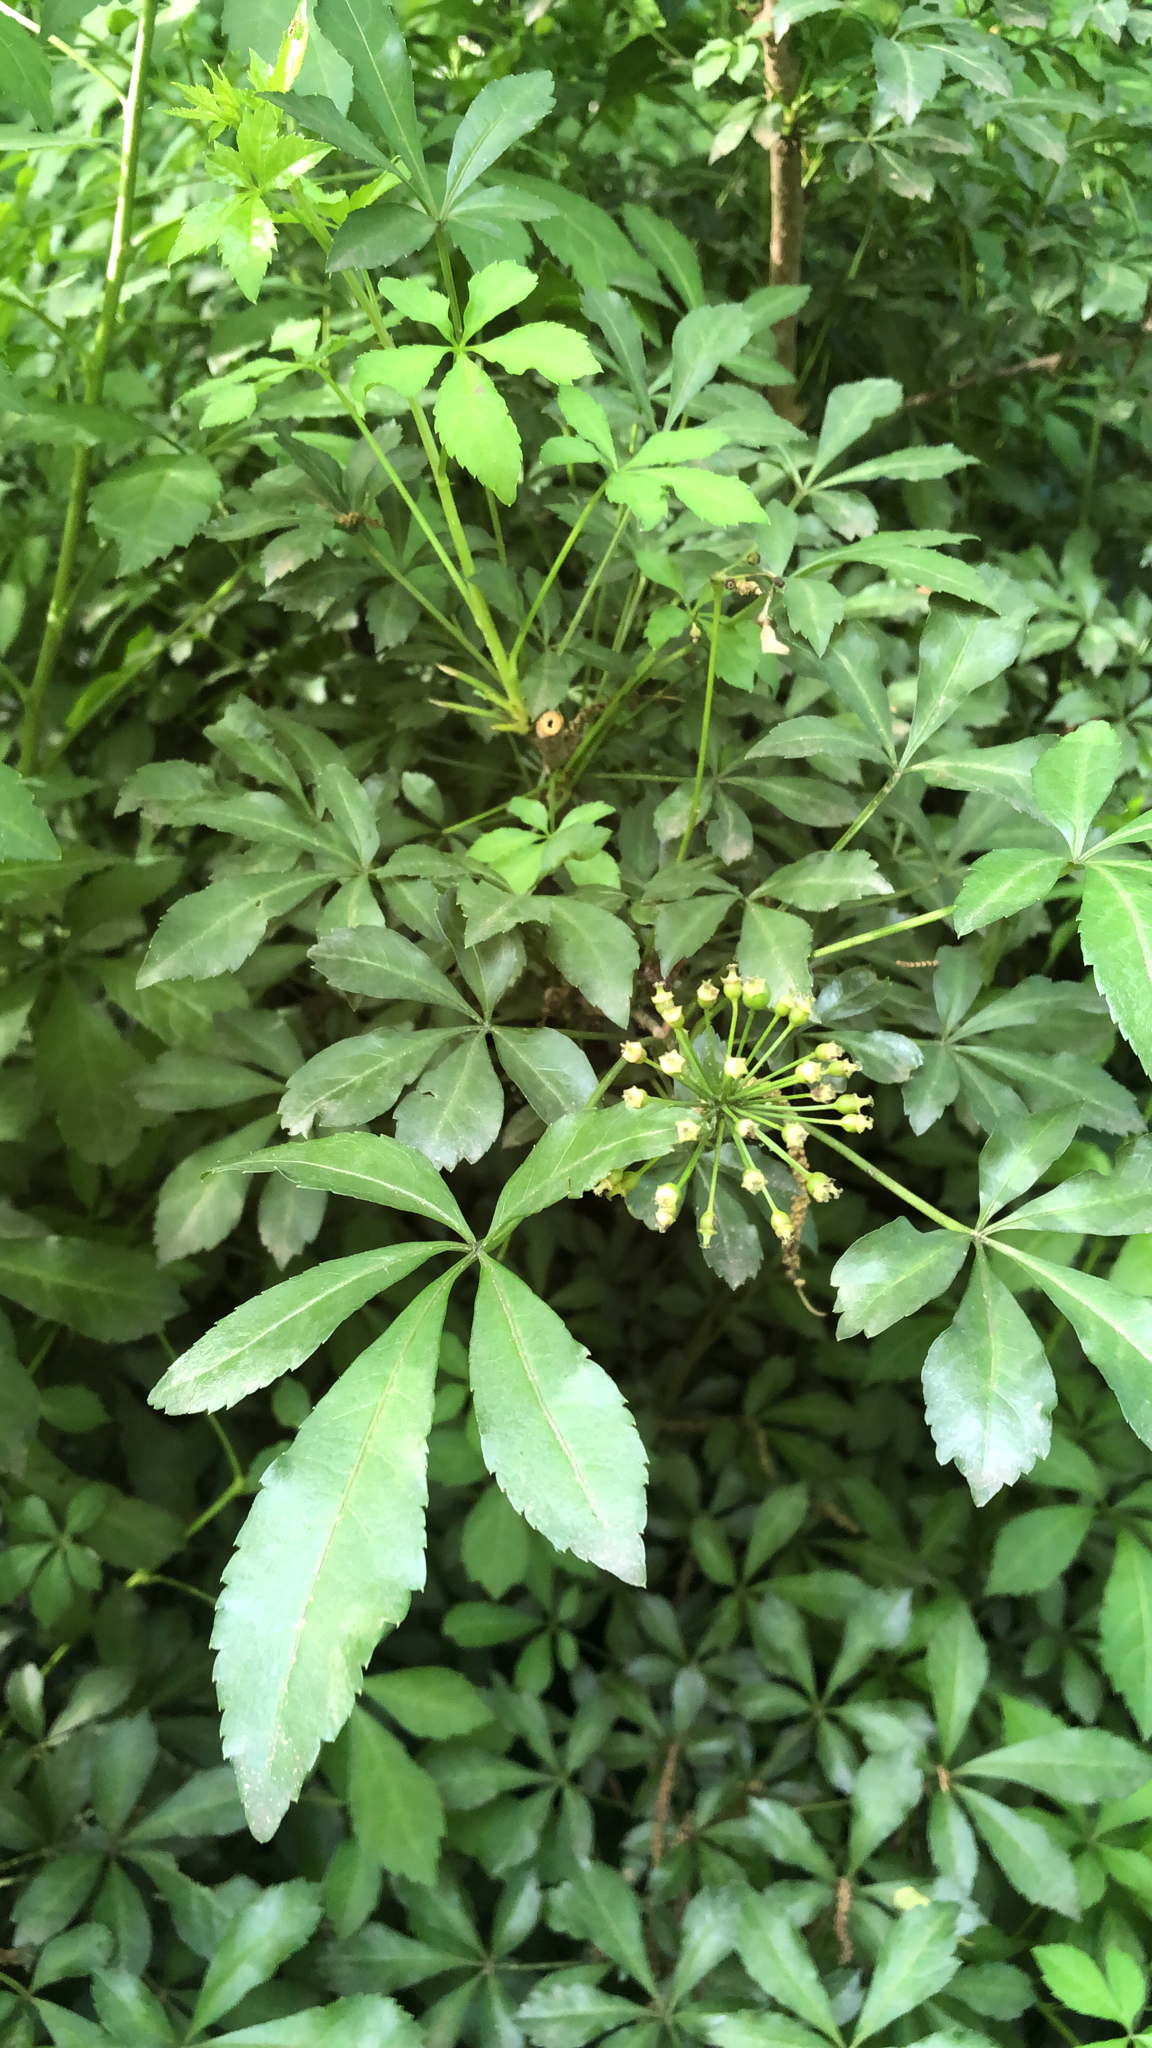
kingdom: Plantae
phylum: Tracheophyta
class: Magnoliopsida
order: Apiales
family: Araliaceae
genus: Eleutherococcus
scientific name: Eleutherococcus sieboldianus
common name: Ginseng
